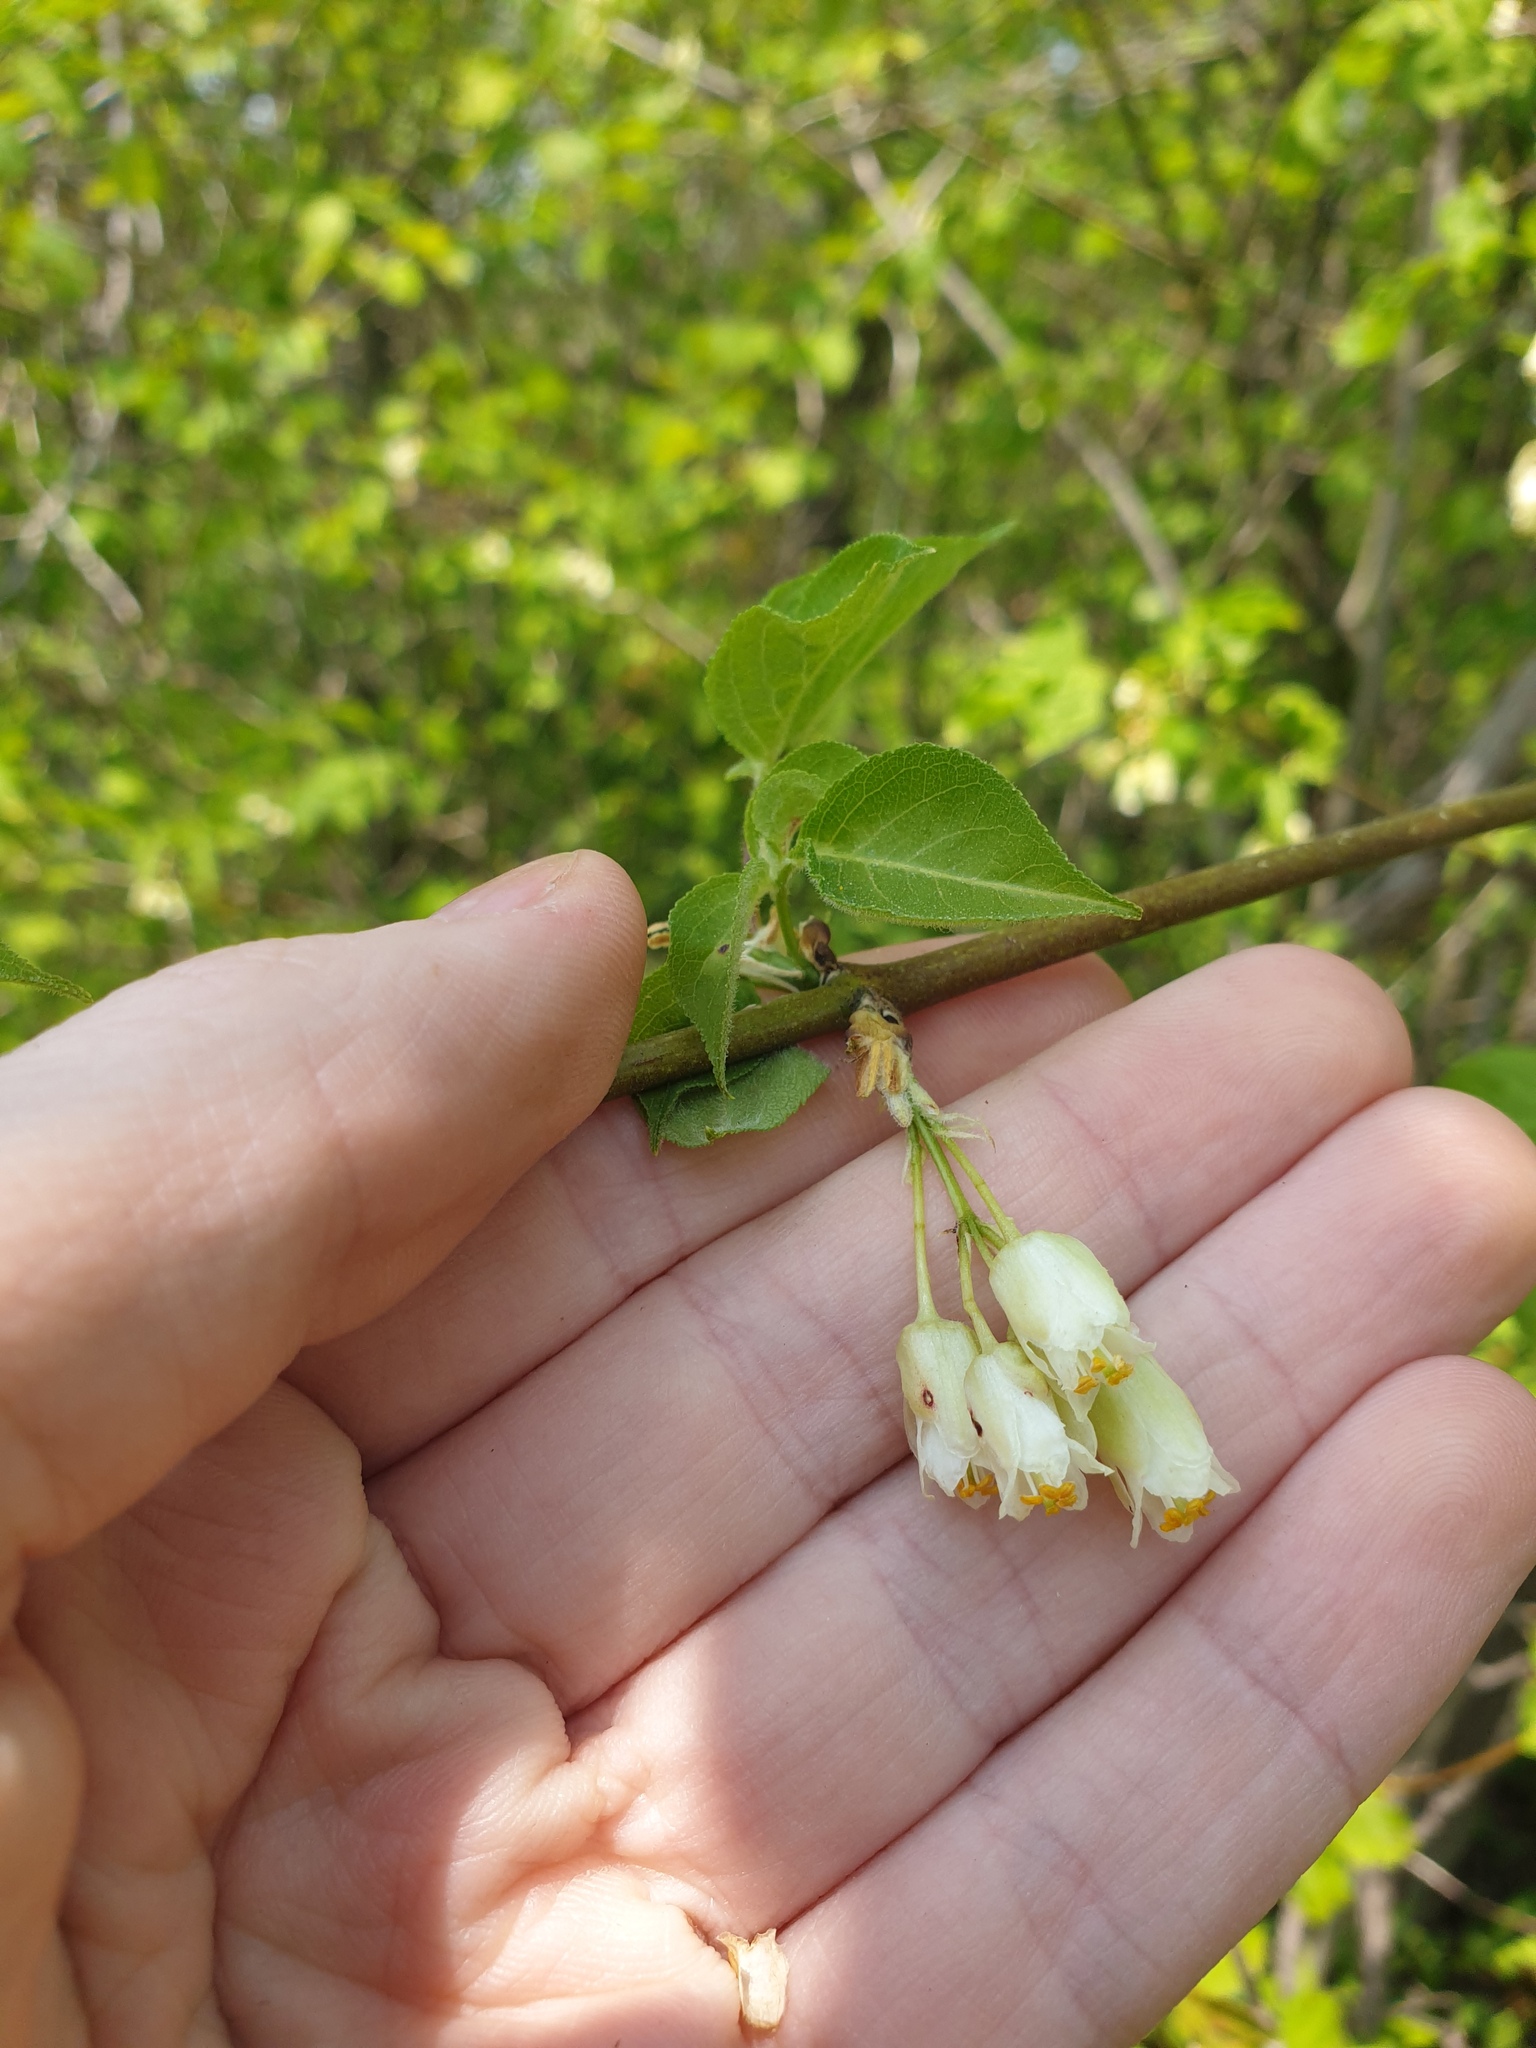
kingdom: Plantae
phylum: Tracheophyta
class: Magnoliopsida
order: Crossosomatales
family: Staphyleaceae
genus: Staphylea
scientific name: Staphylea trifolia
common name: American bladdernut
